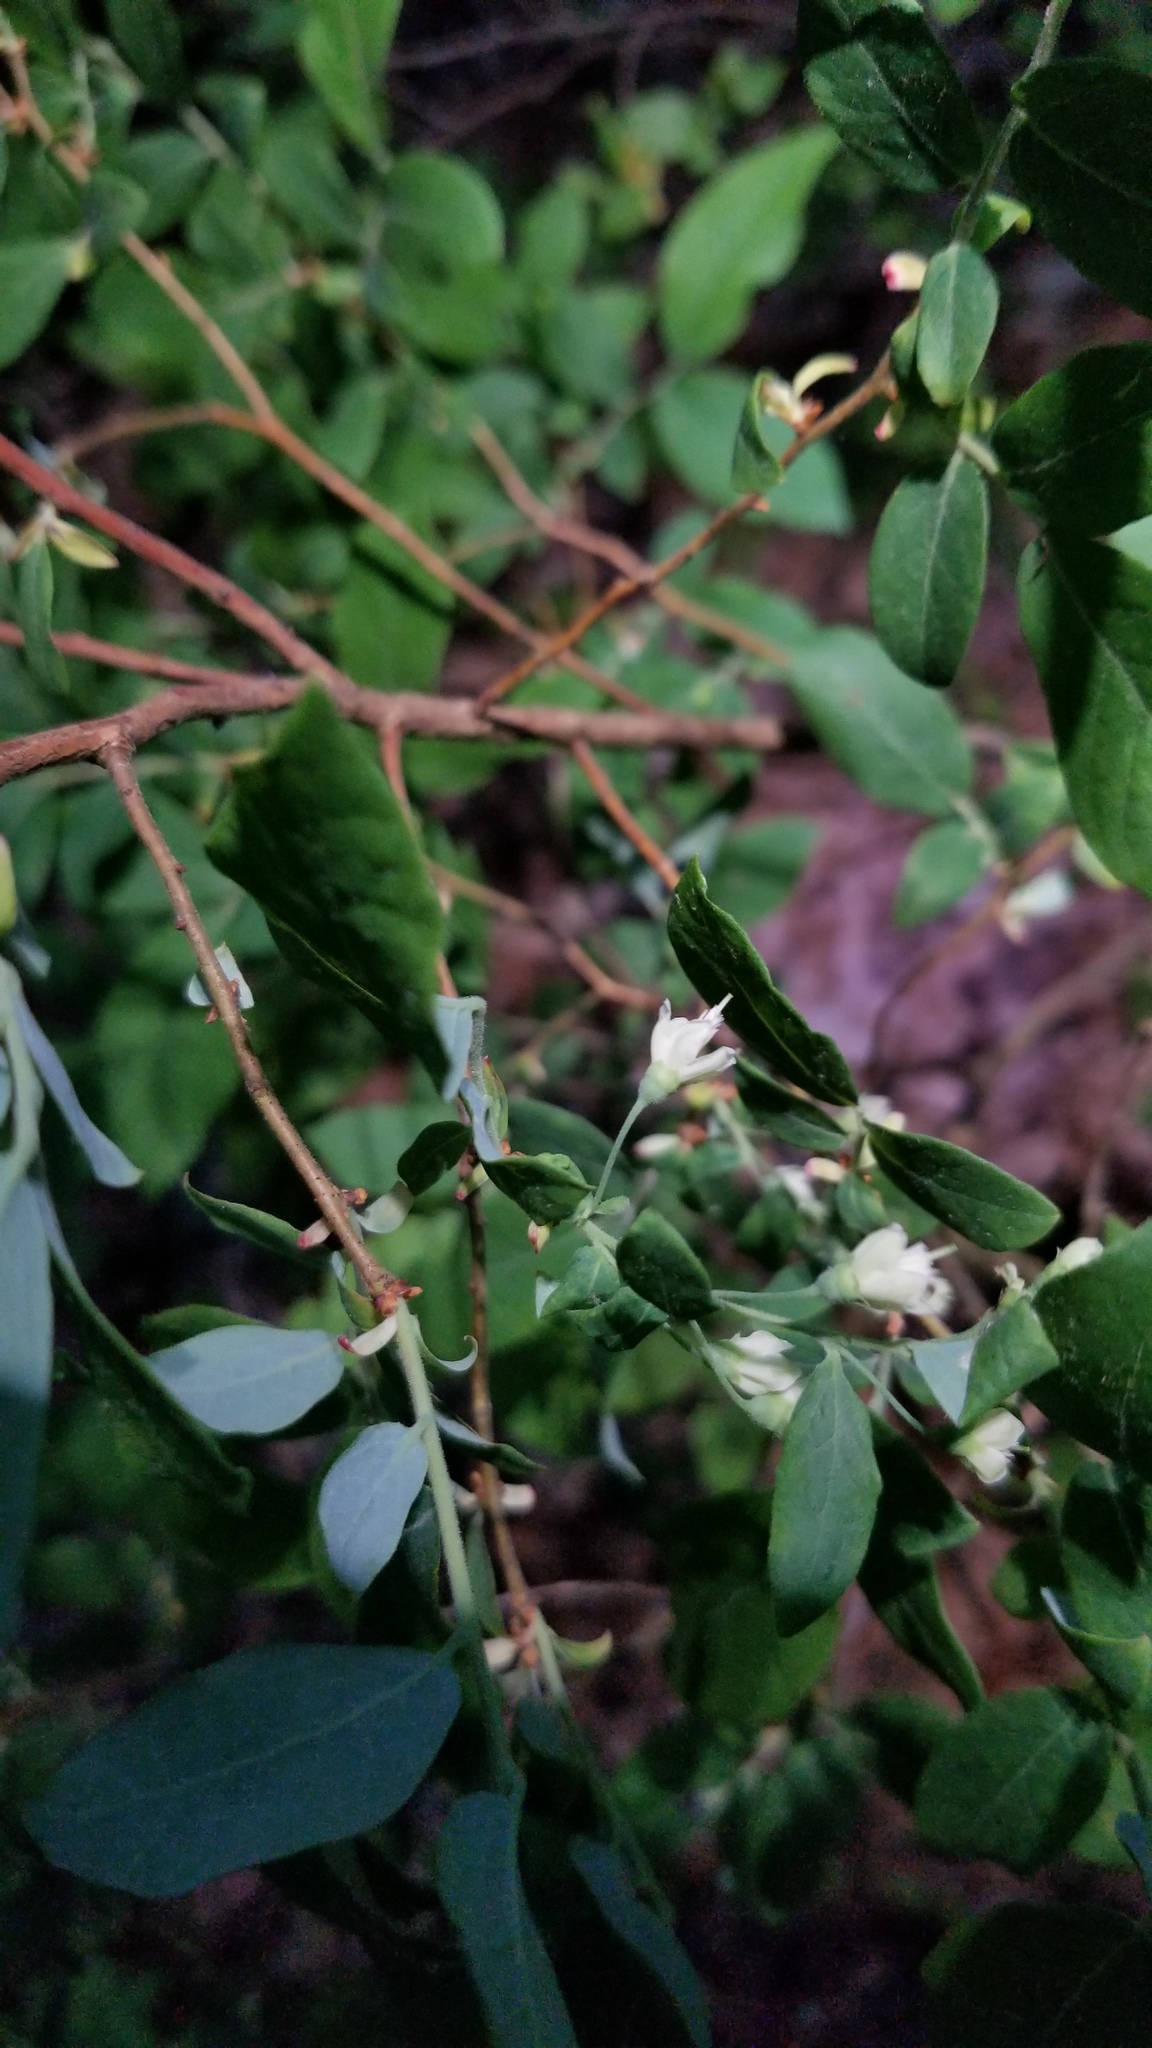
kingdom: Plantae
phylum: Tracheophyta
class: Magnoliopsida
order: Ericales
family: Ericaceae
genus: Vaccinium
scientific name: Vaccinium stamineum
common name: Deerberry
